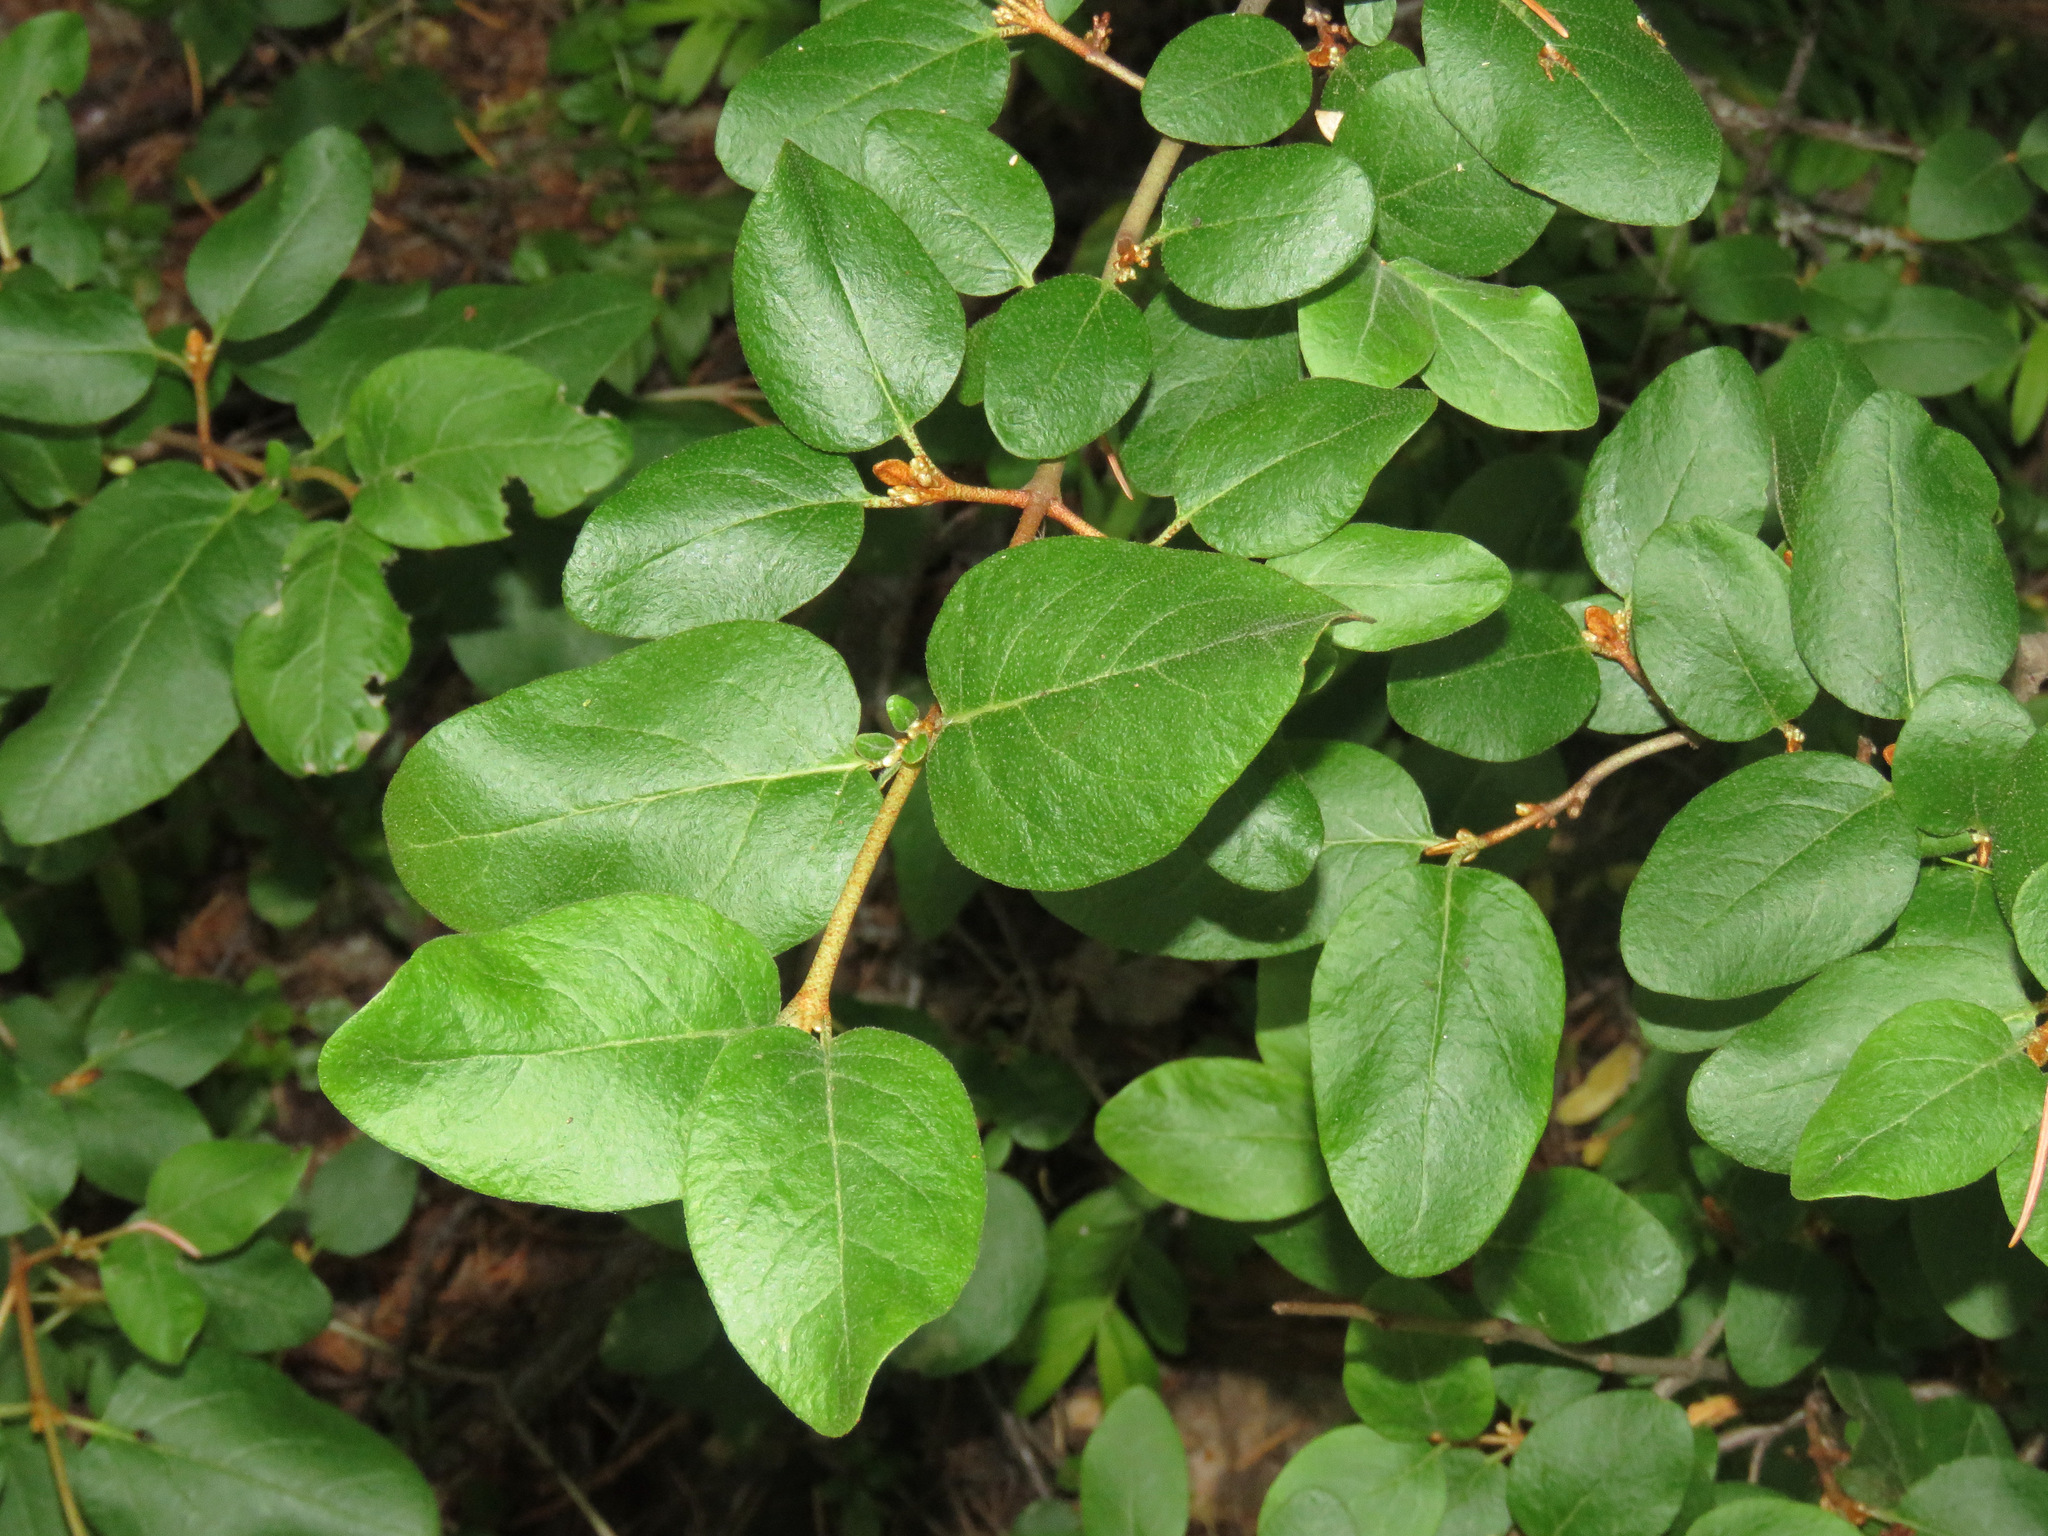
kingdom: Plantae
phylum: Tracheophyta
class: Magnoliopsida
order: Rosales
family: Elaeagnaceae
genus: Shepherdia
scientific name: Shepherdia canadensis
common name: Soapberry
